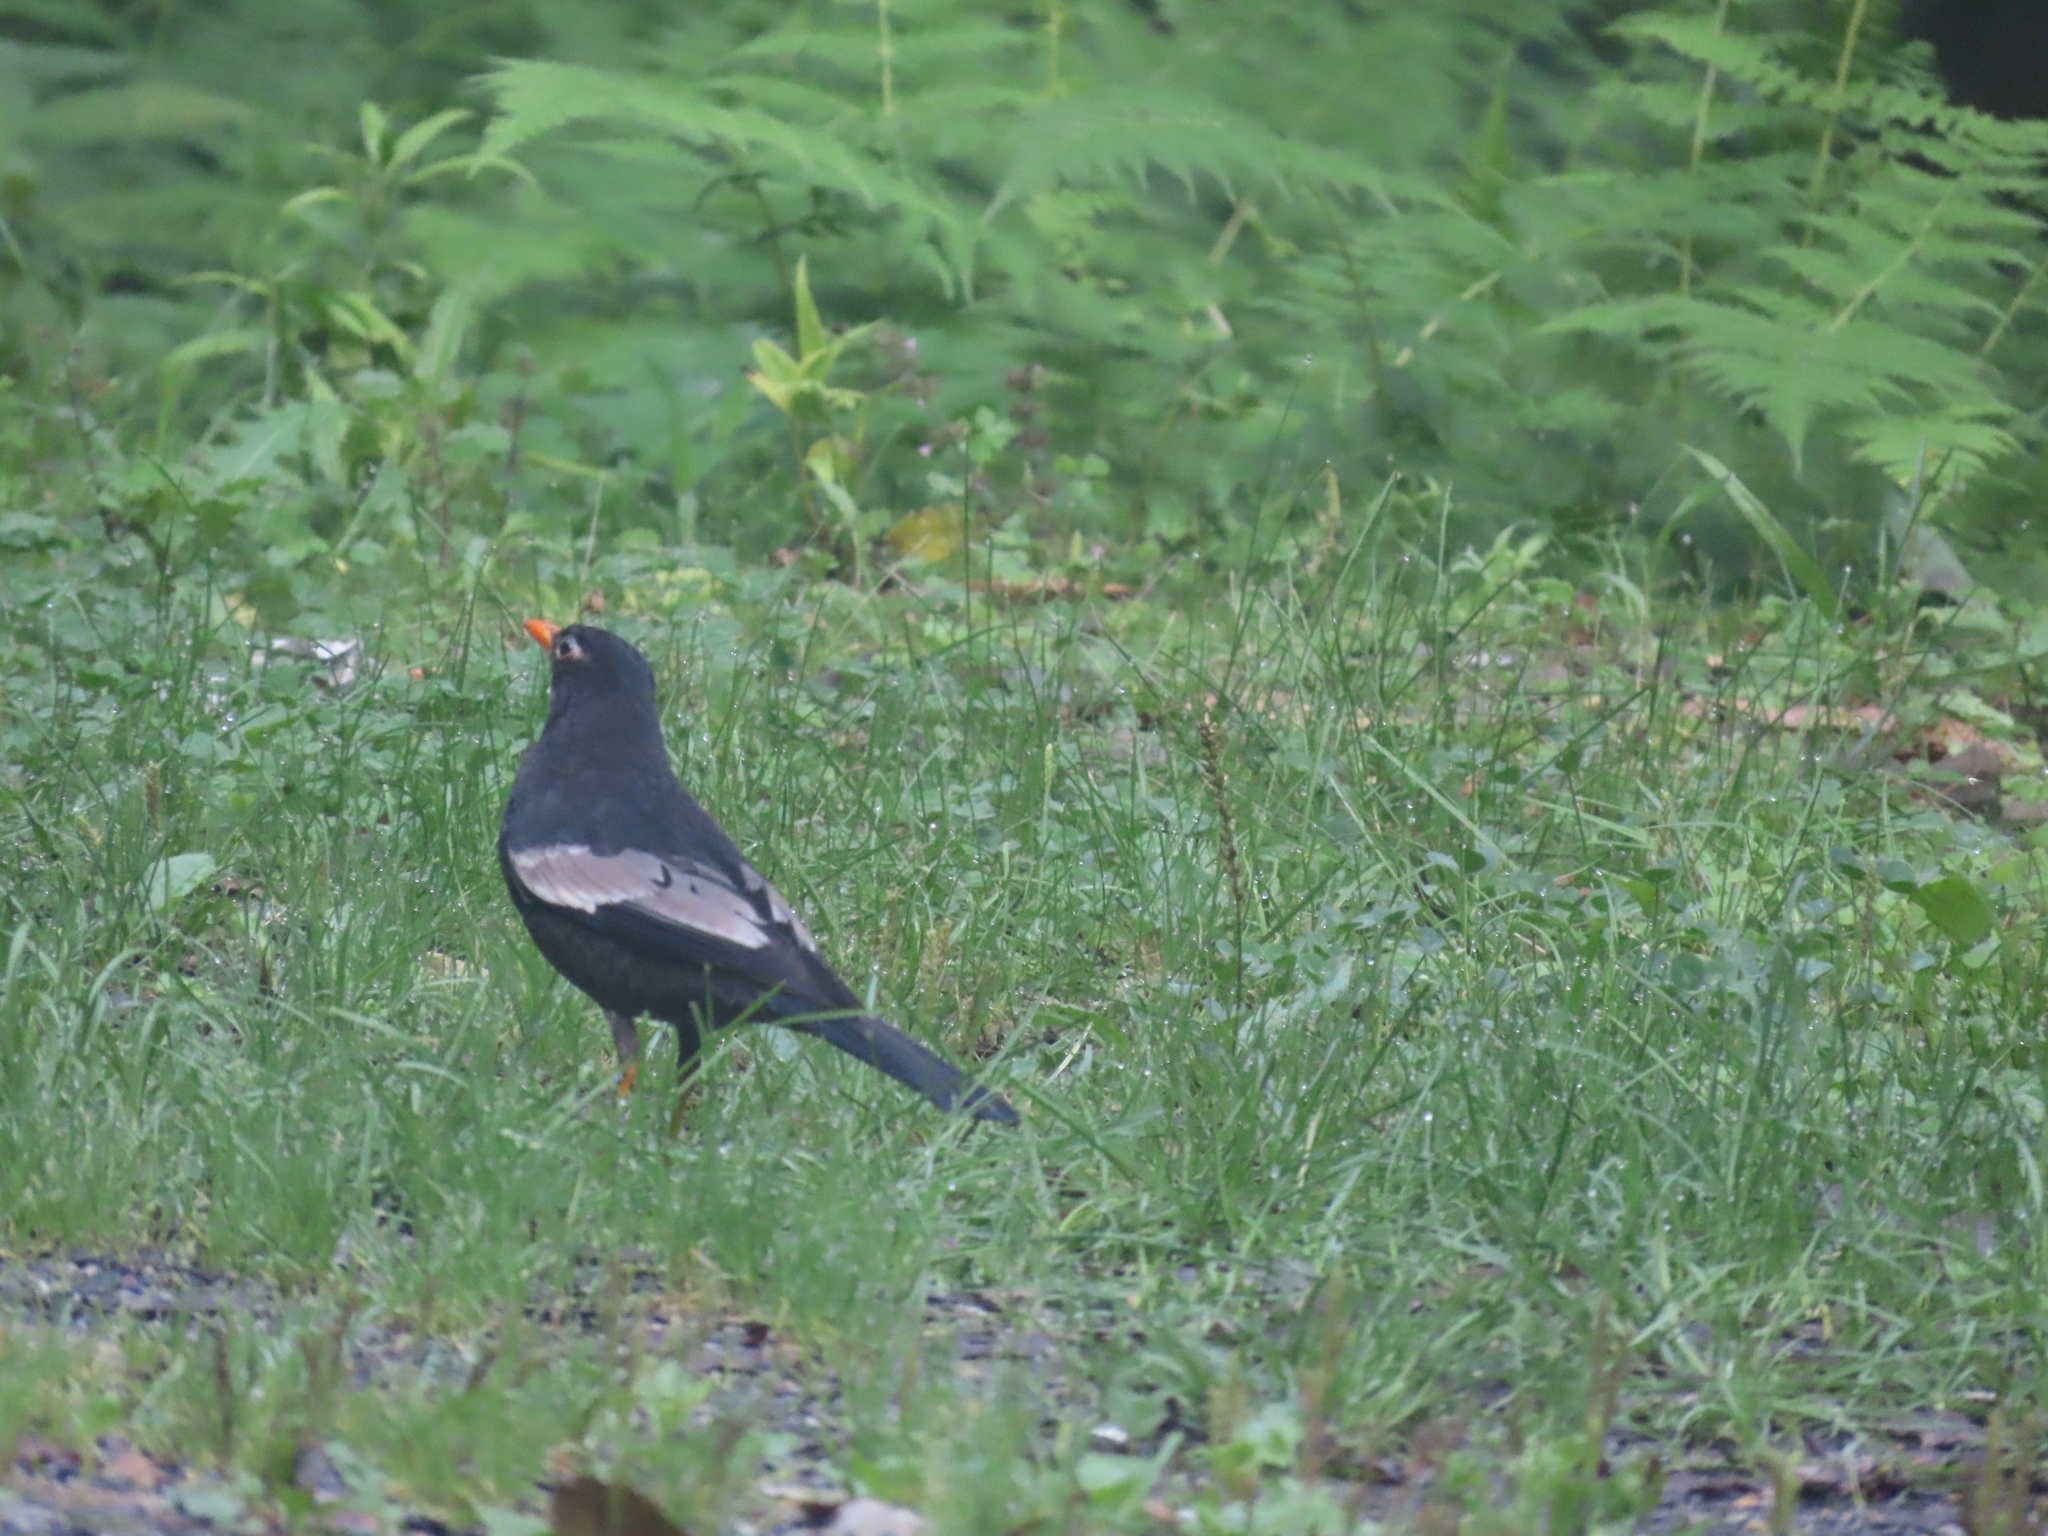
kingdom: Animalia
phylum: Chordata
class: Aves
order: Passeriformes
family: Turdidae
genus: Turdus
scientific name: Turdus boulboul
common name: Grey-winged blackbird
